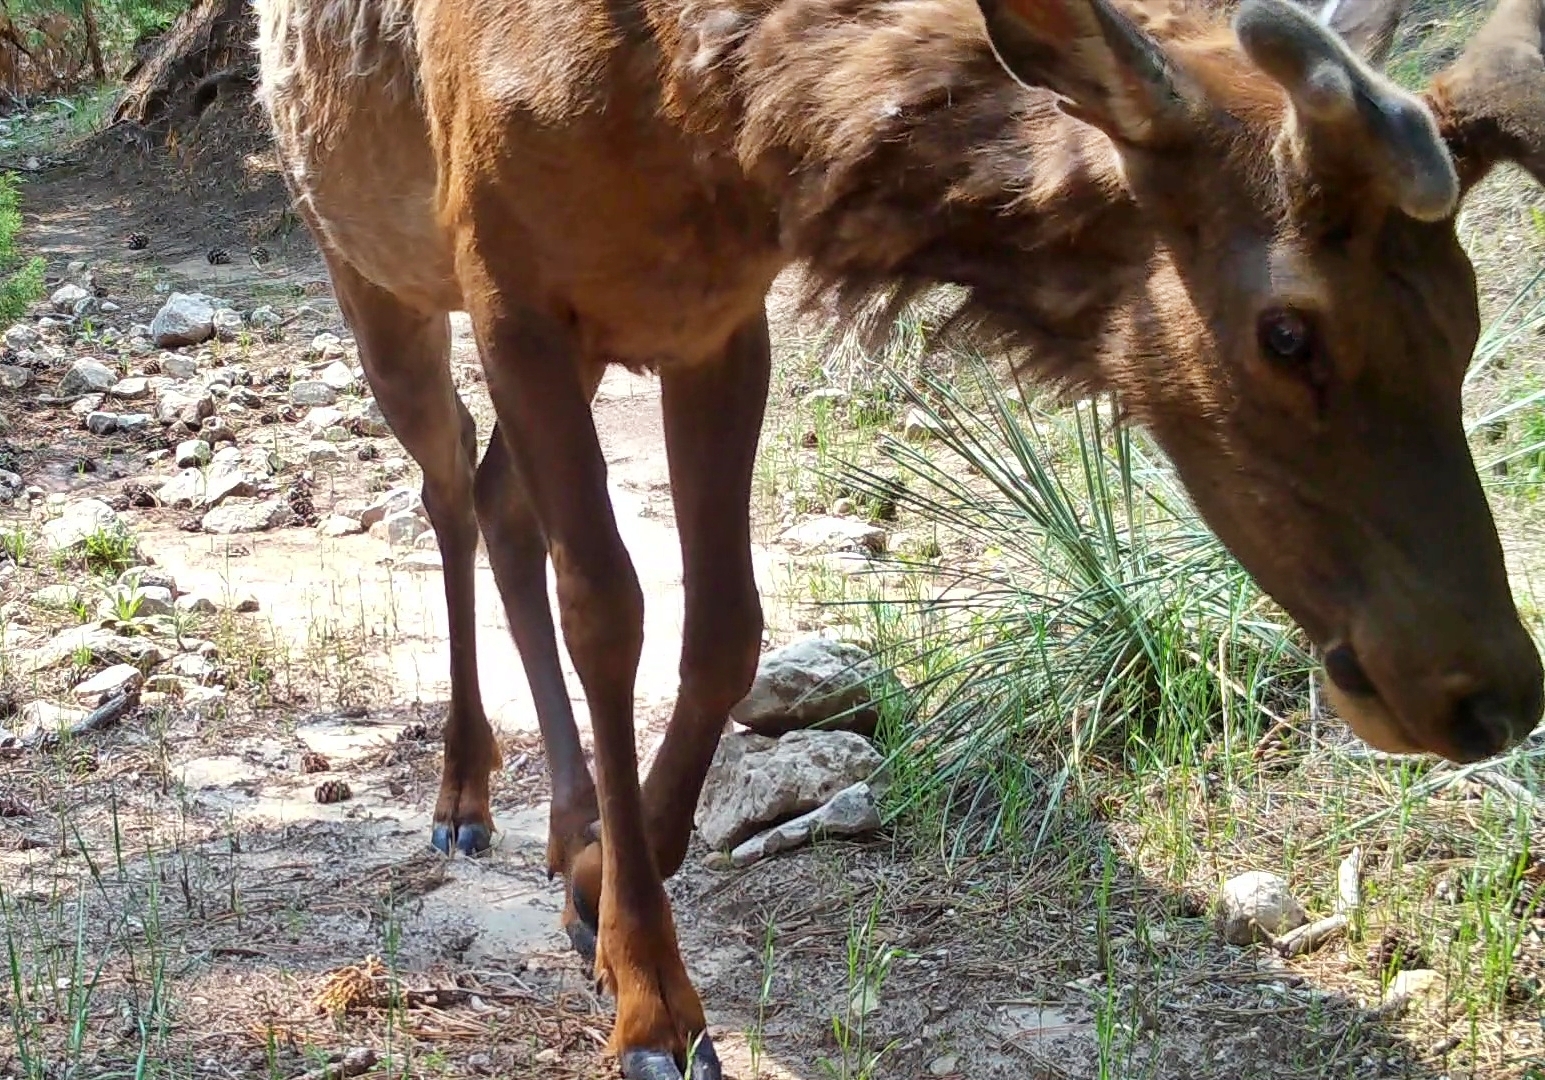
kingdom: Animalia
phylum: Chordata
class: Mammalia
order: Artiodactyla
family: Cervidae
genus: Cervus
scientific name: Cervus elaphus
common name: Red deer
